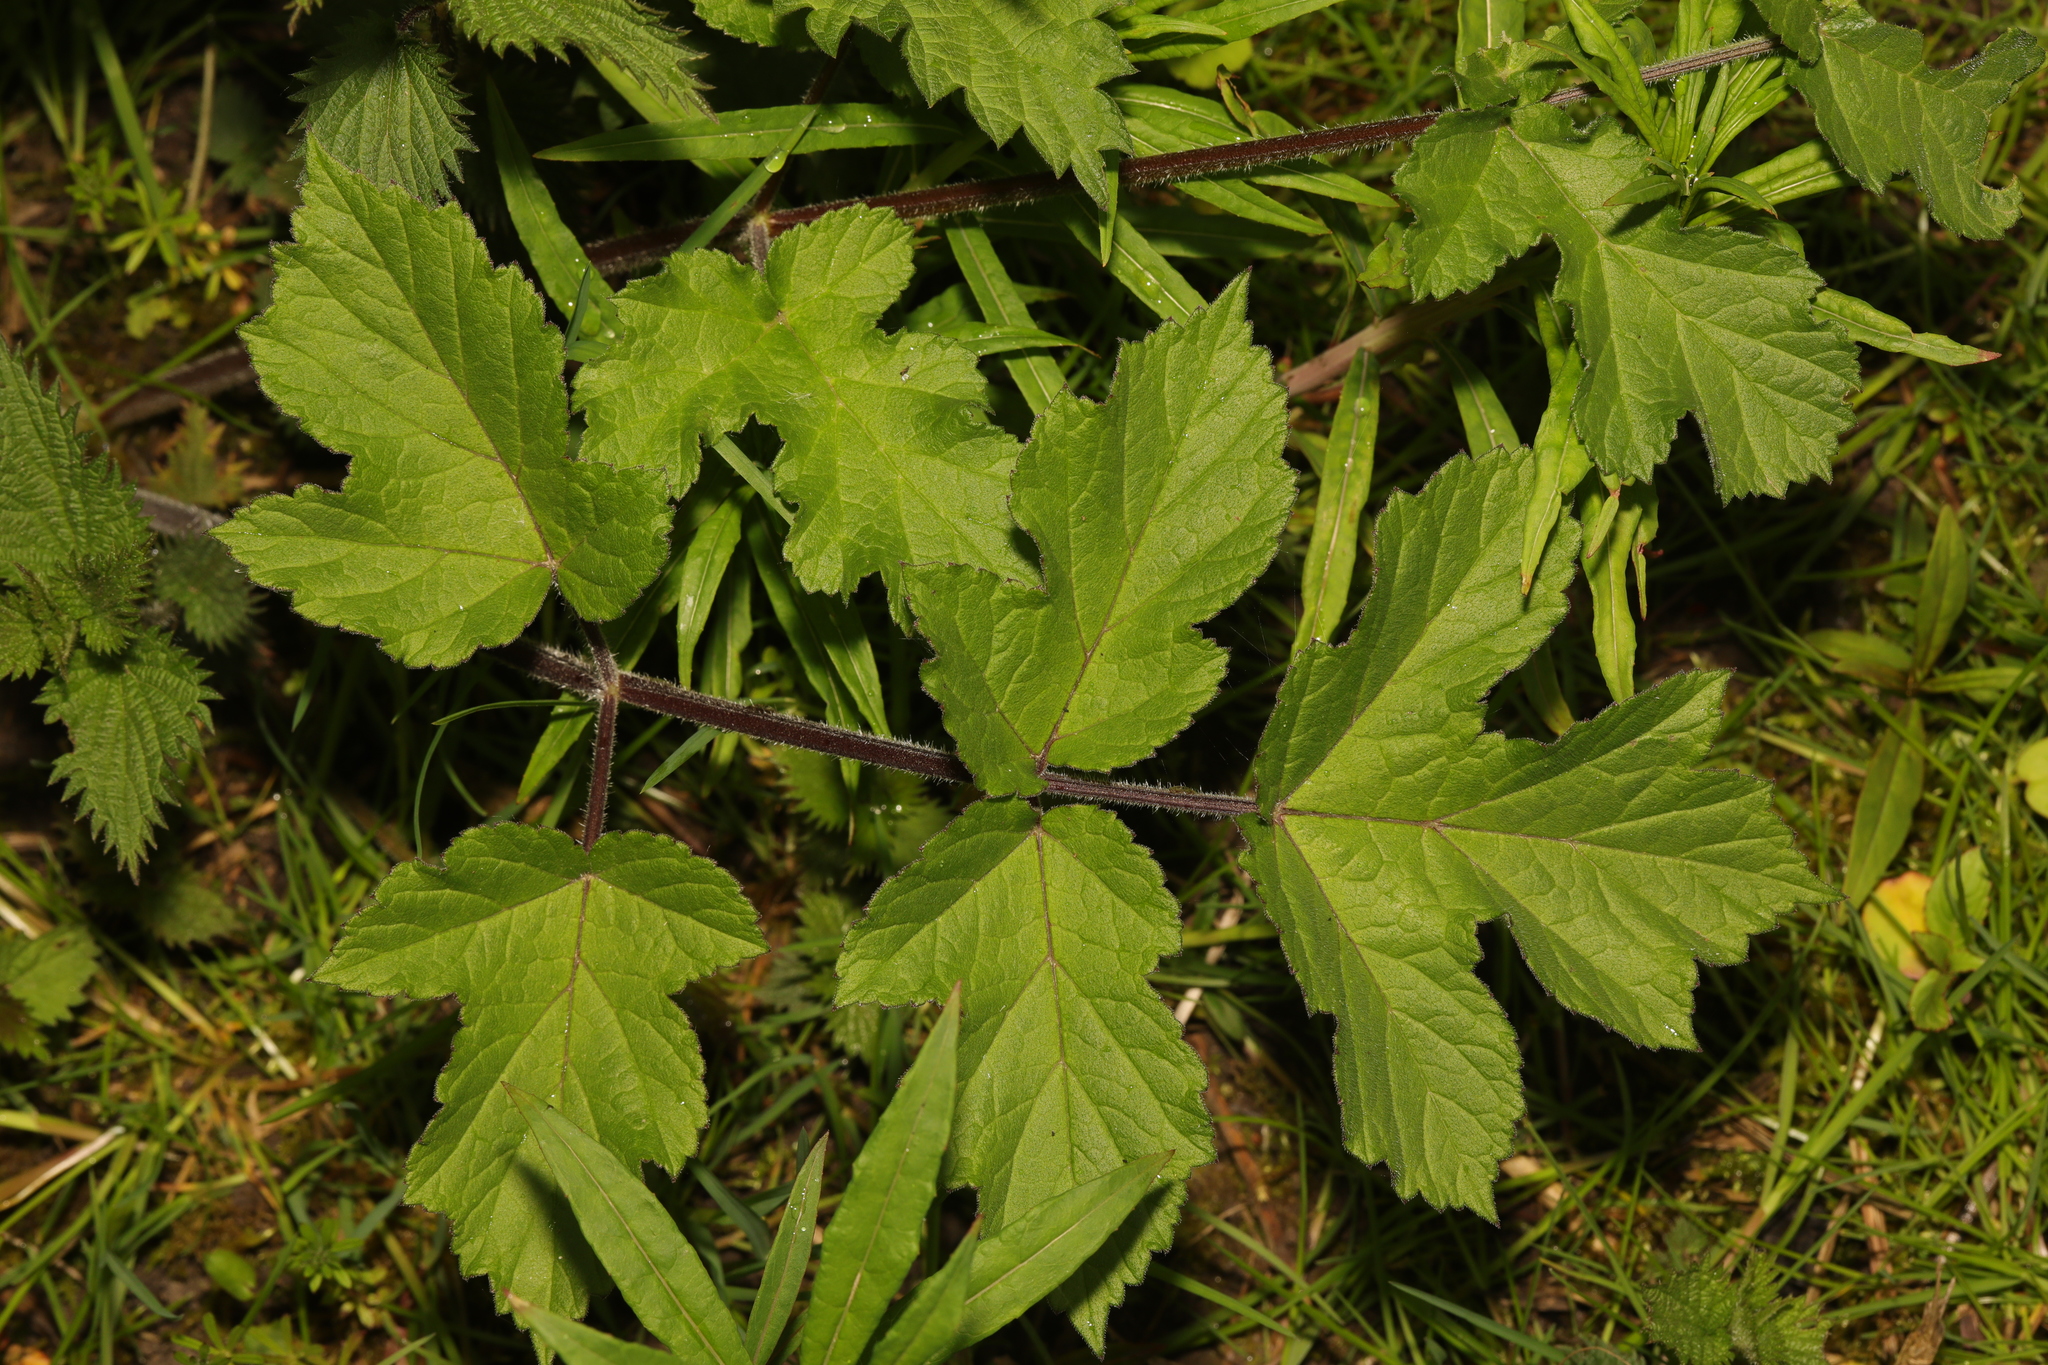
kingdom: Plantae
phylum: Tracheophyta
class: Magnoliopsida
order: Apiales
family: Apiaceae
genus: Heracleum
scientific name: Heracleum sphondylium
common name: Hogweed
